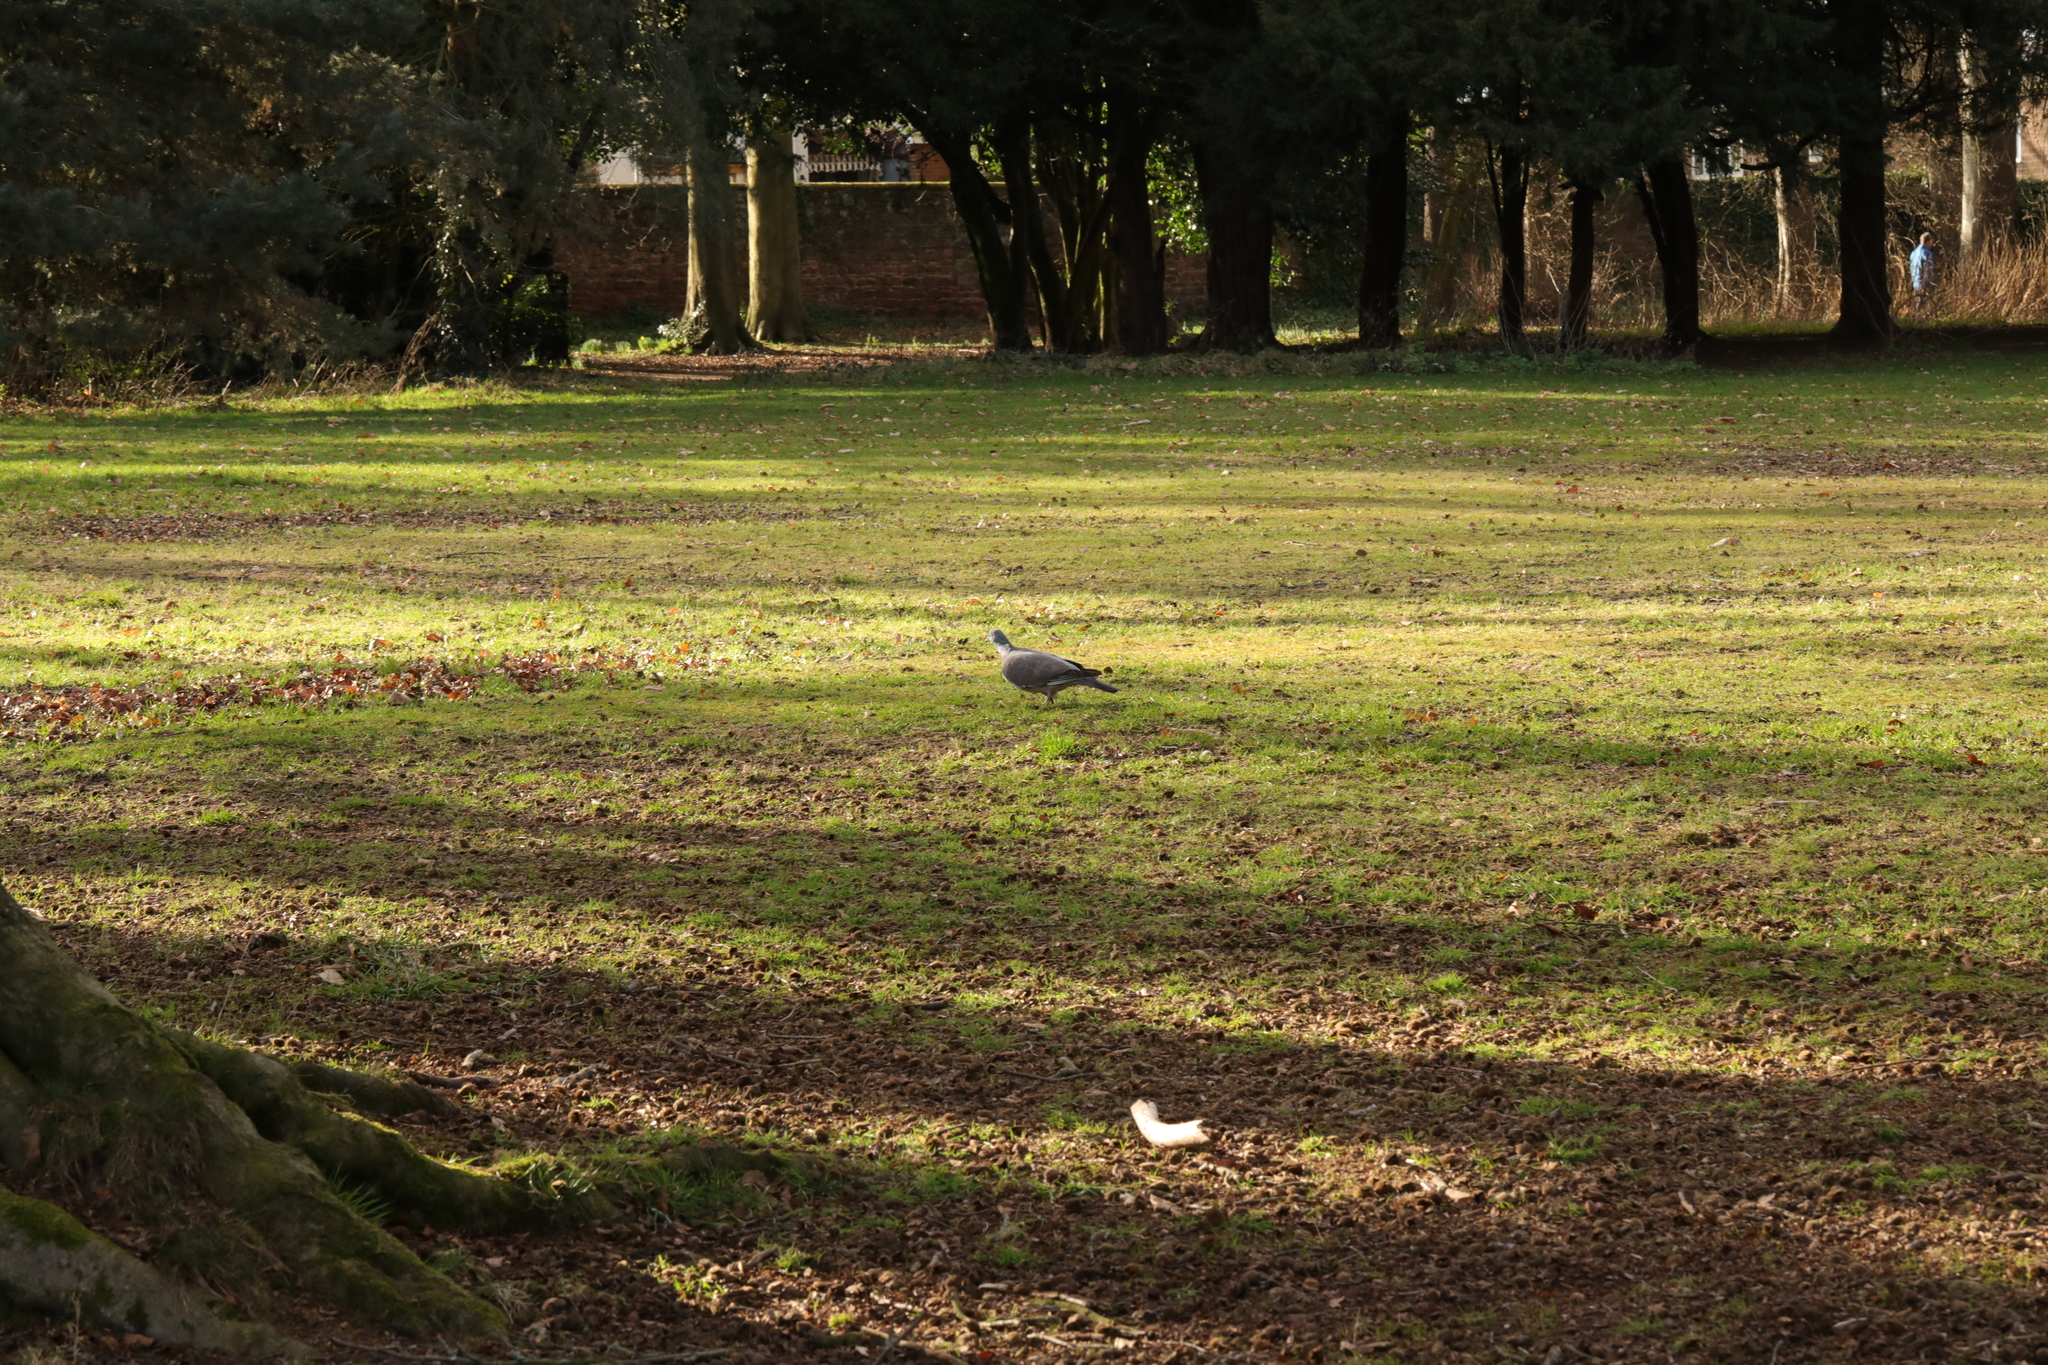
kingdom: Animalia
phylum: Chordata
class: Aves
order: Columbiformes
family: Columbidae
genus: Columba
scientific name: Columba palumbus
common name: Common wood pigeon
